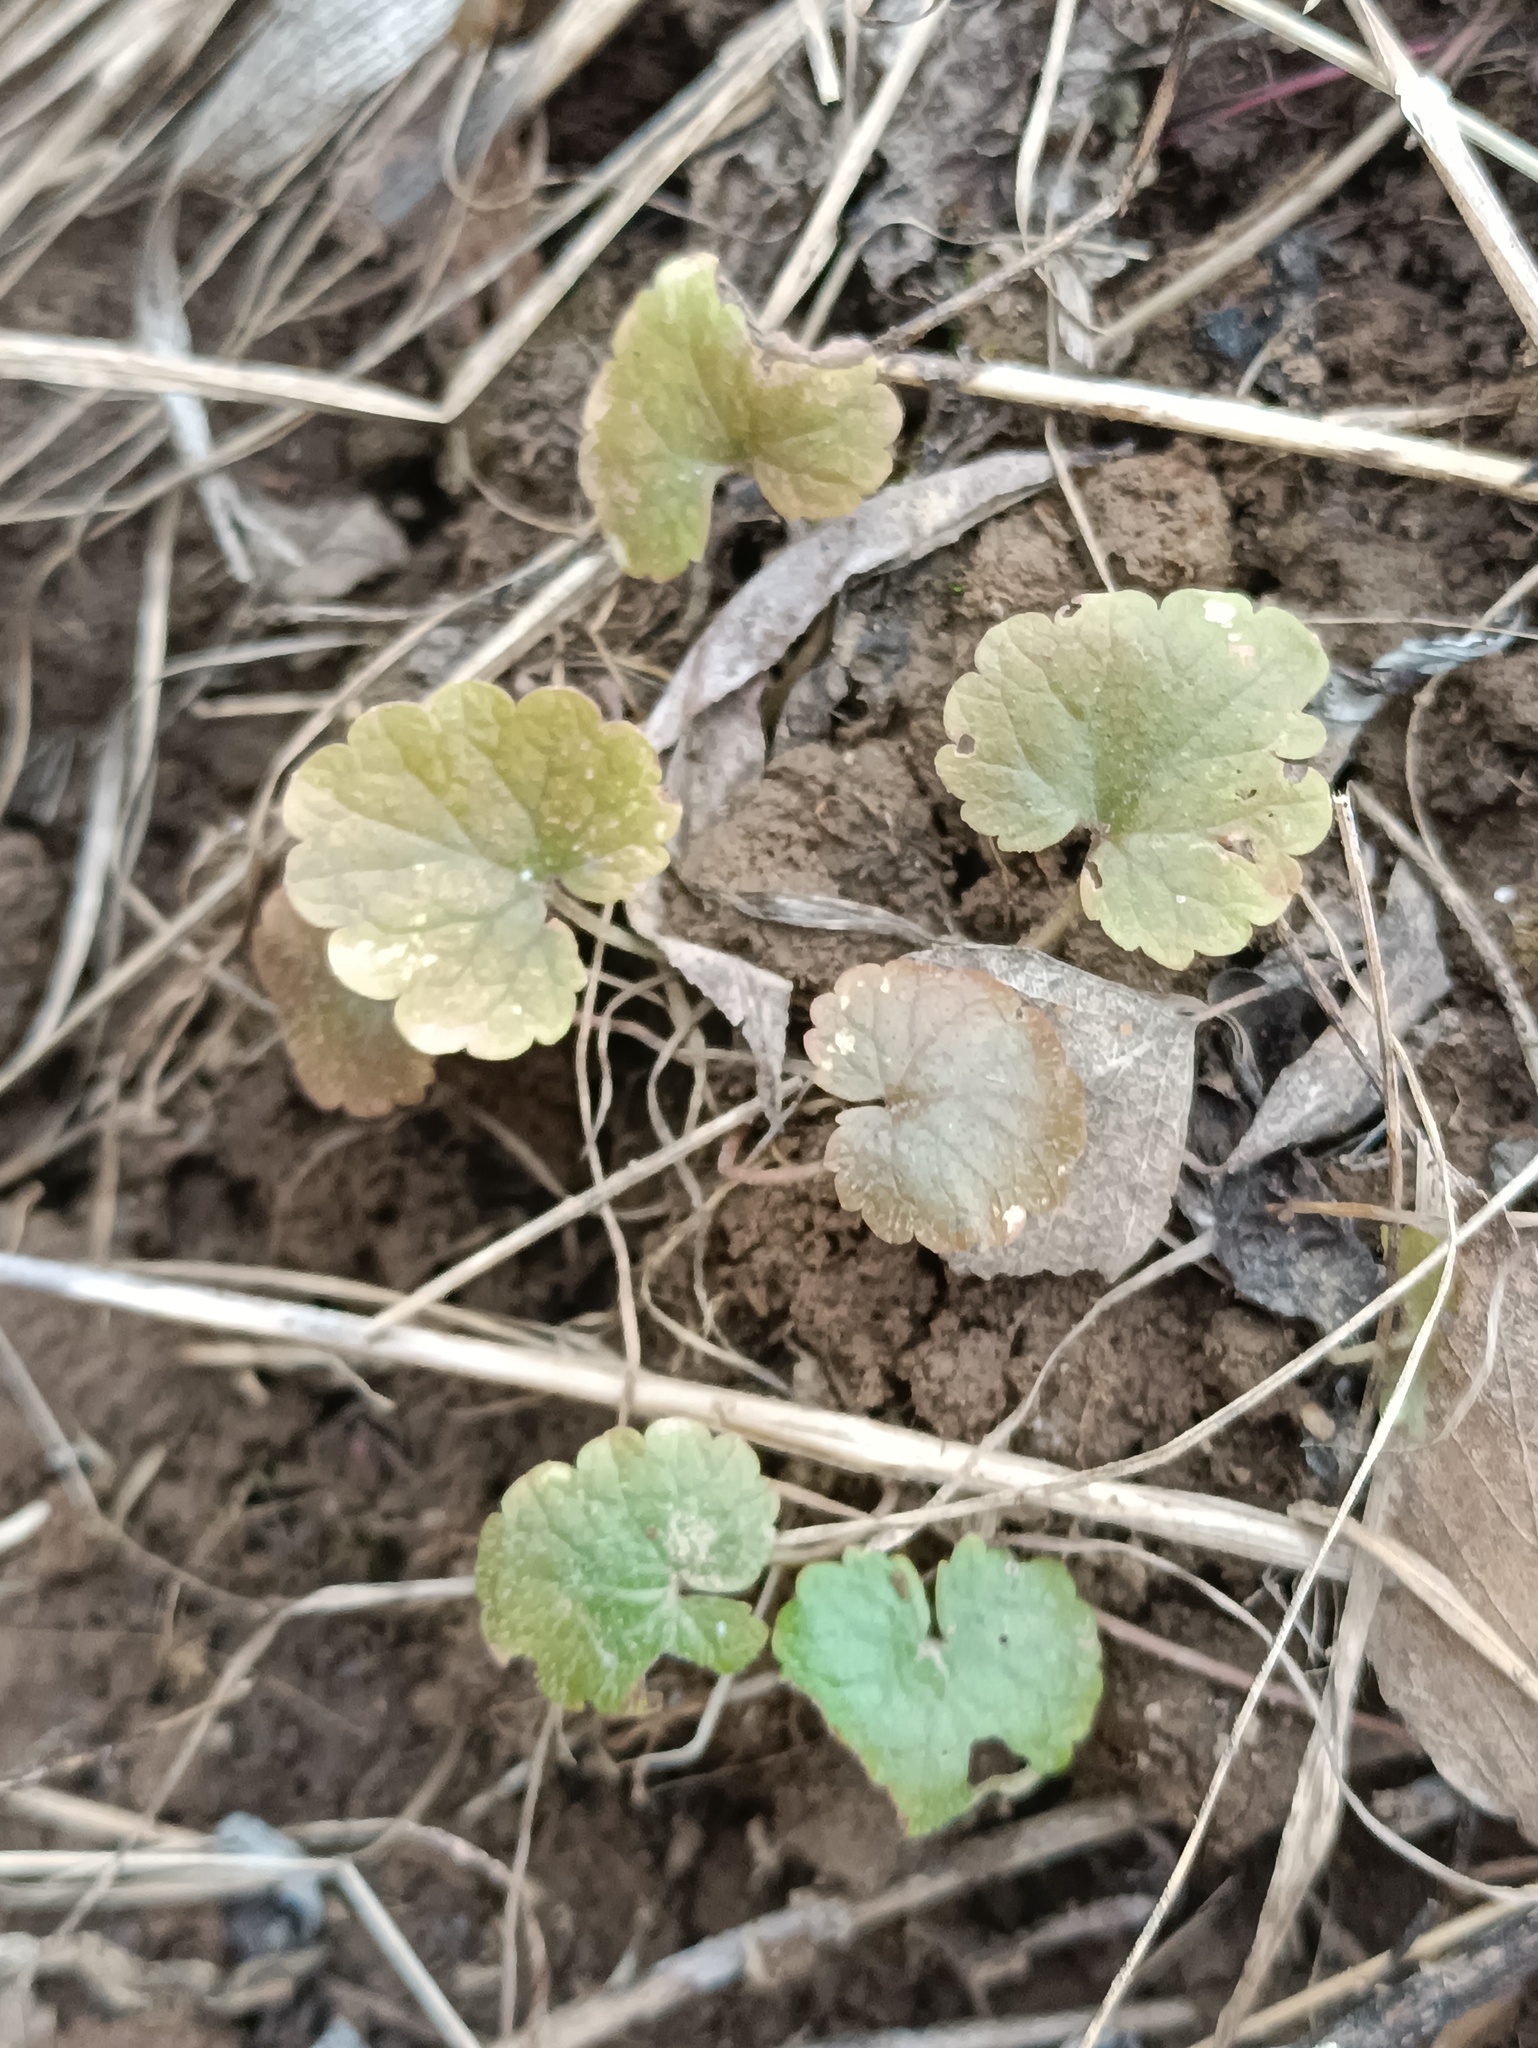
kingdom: Plantae
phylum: Tracheophyta
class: Magnoliopsida
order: Lamiales
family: Lamiaceae
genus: Glechoma
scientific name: Glechoma hederacea
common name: Ground ivy
